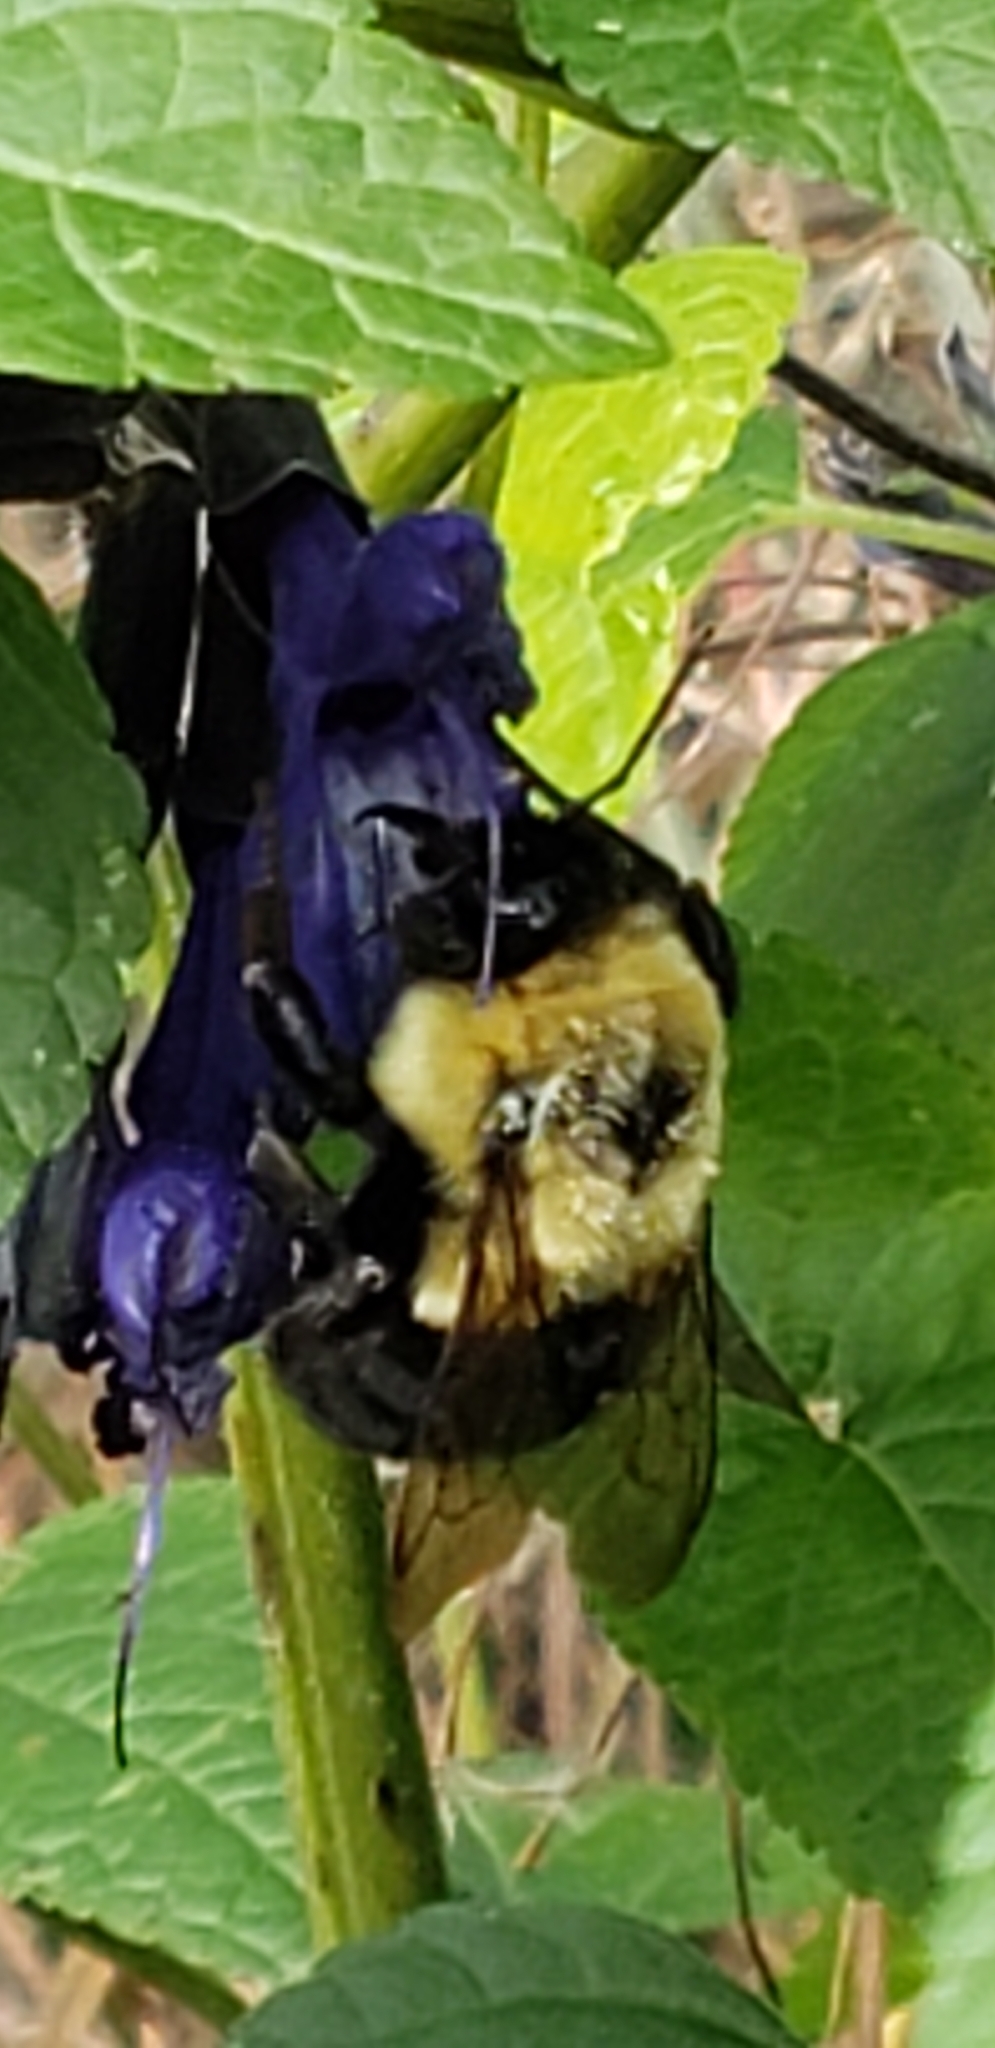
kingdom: Animalia
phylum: Arthropoda
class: Insecta
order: Hymenoptera
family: Apidae
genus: Bombus
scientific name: Bombus impatiens
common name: Common eastern bumble bee
